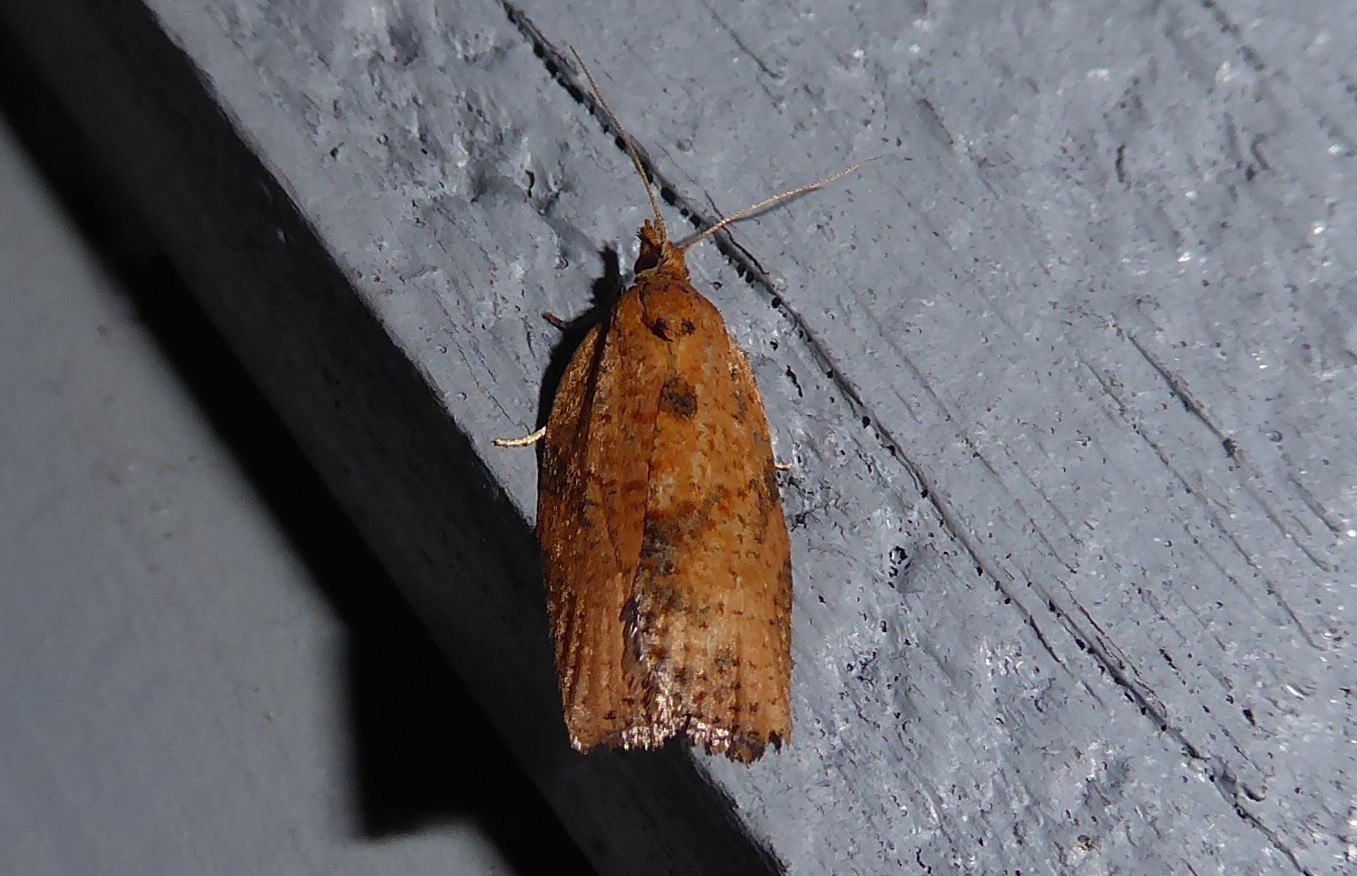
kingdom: Animalia
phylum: Arthropoda
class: Insecta
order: Lepidoptera
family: Tortricidae
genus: Epiphyas
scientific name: Epiphyas postvittana
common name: Light brown apple moth
